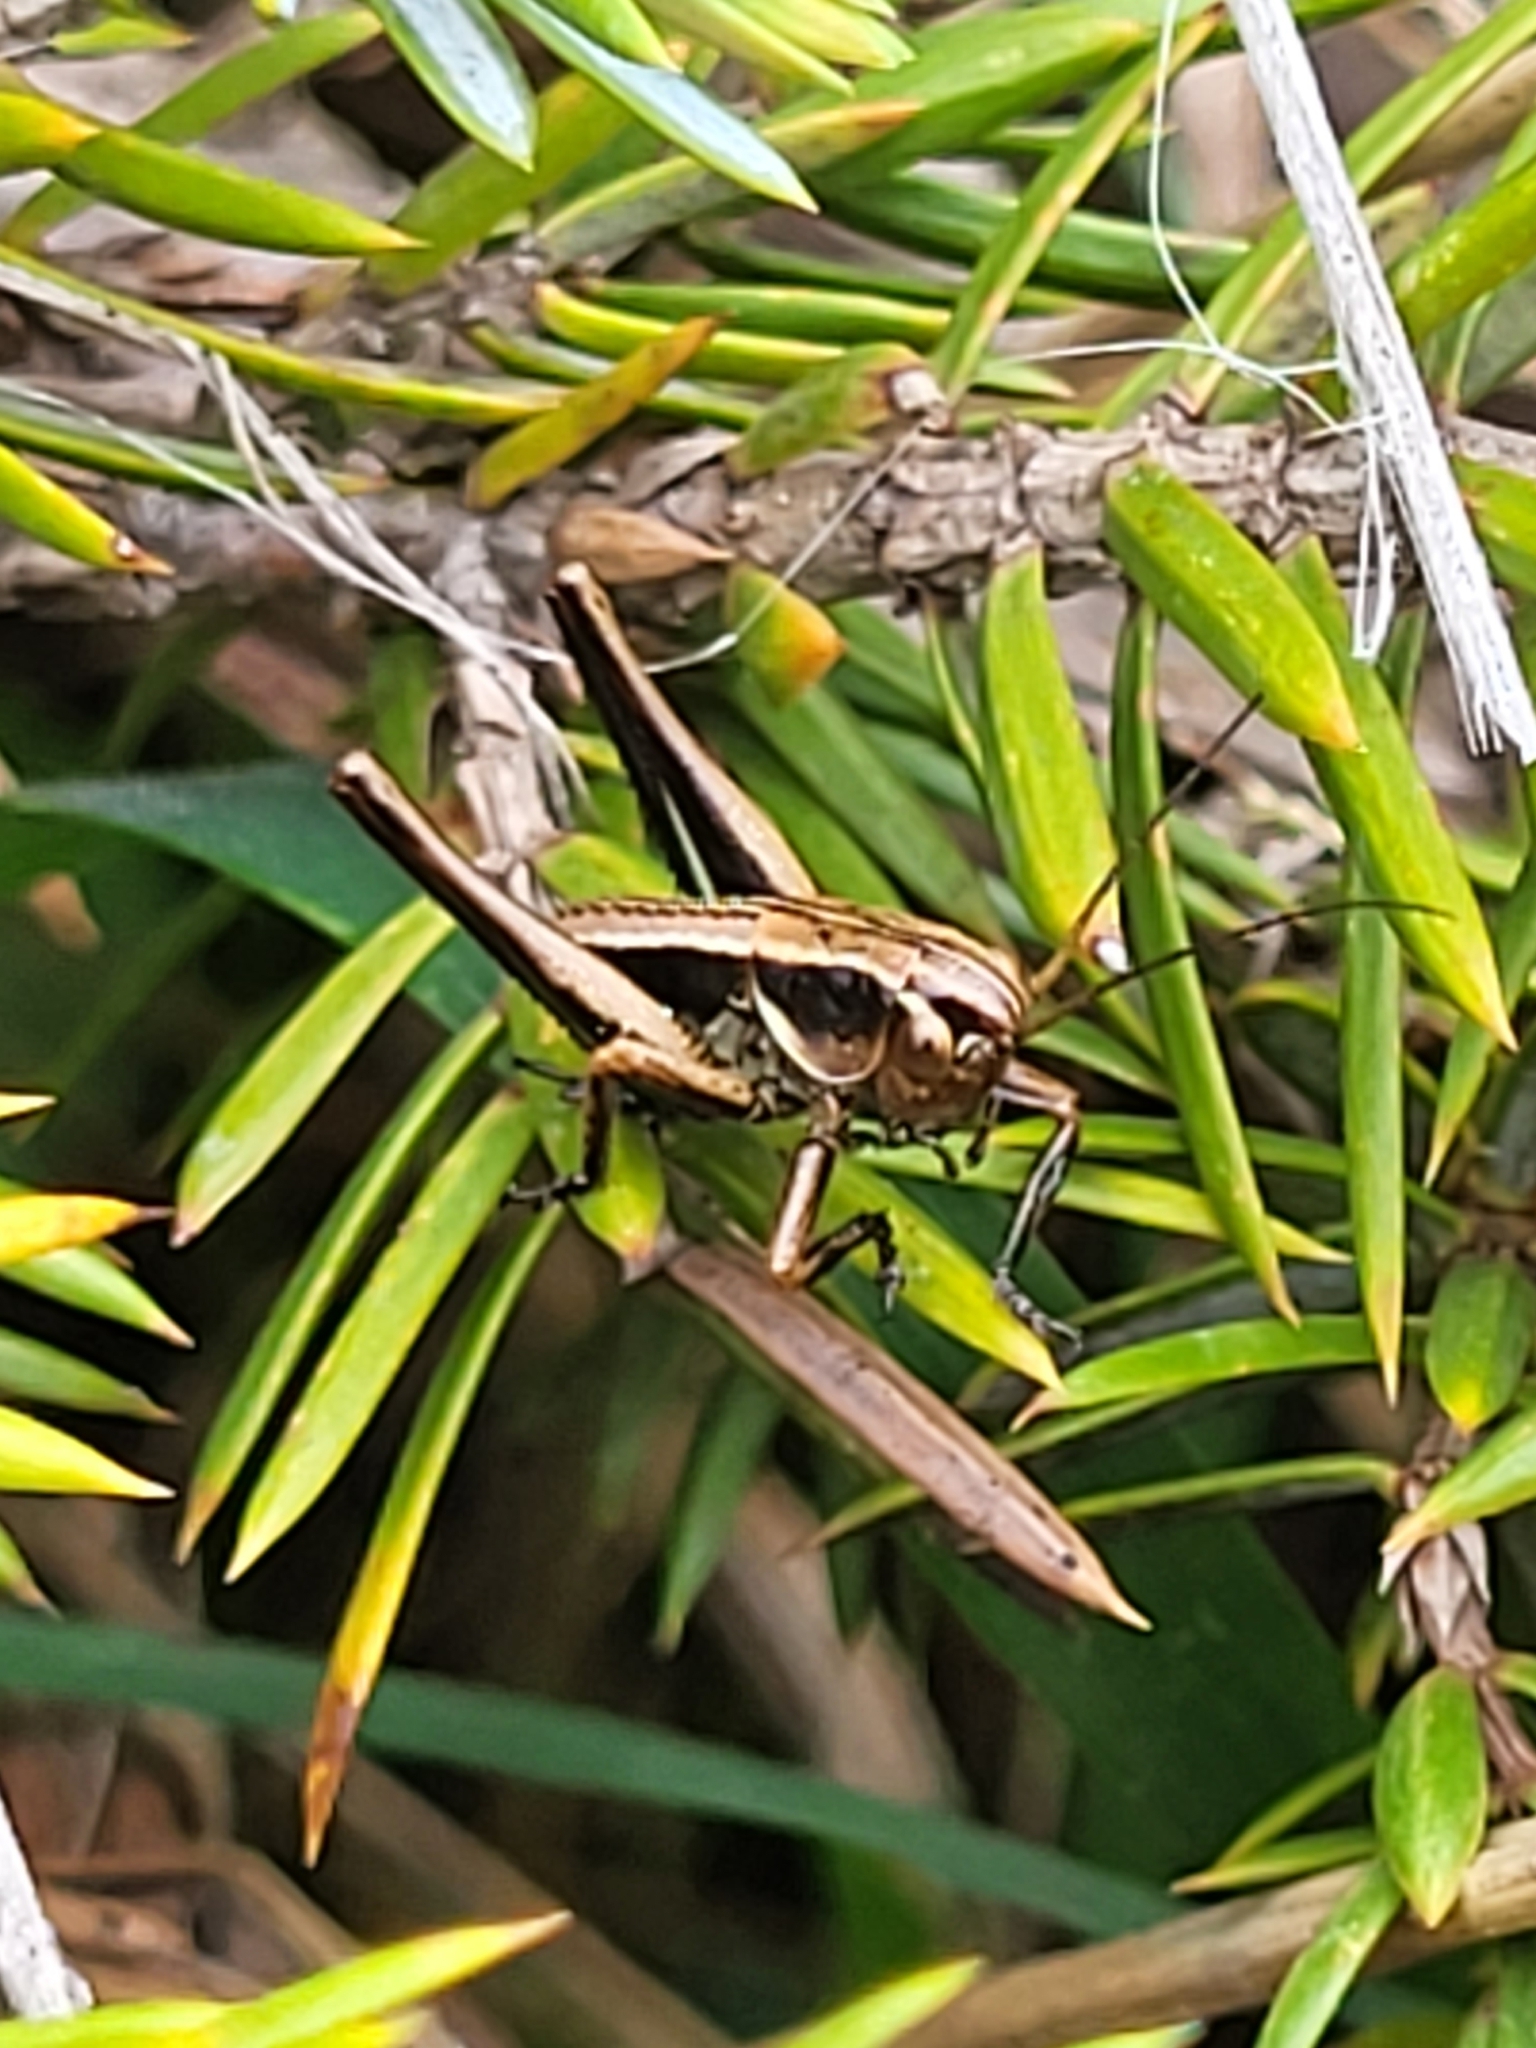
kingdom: Animalia
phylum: Arthropoda
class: Insecta
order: Orthoptera
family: Tettigoniidae
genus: Pholidoptera
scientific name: Pholidoptera griseoaptera
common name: Dark bush-cricket
